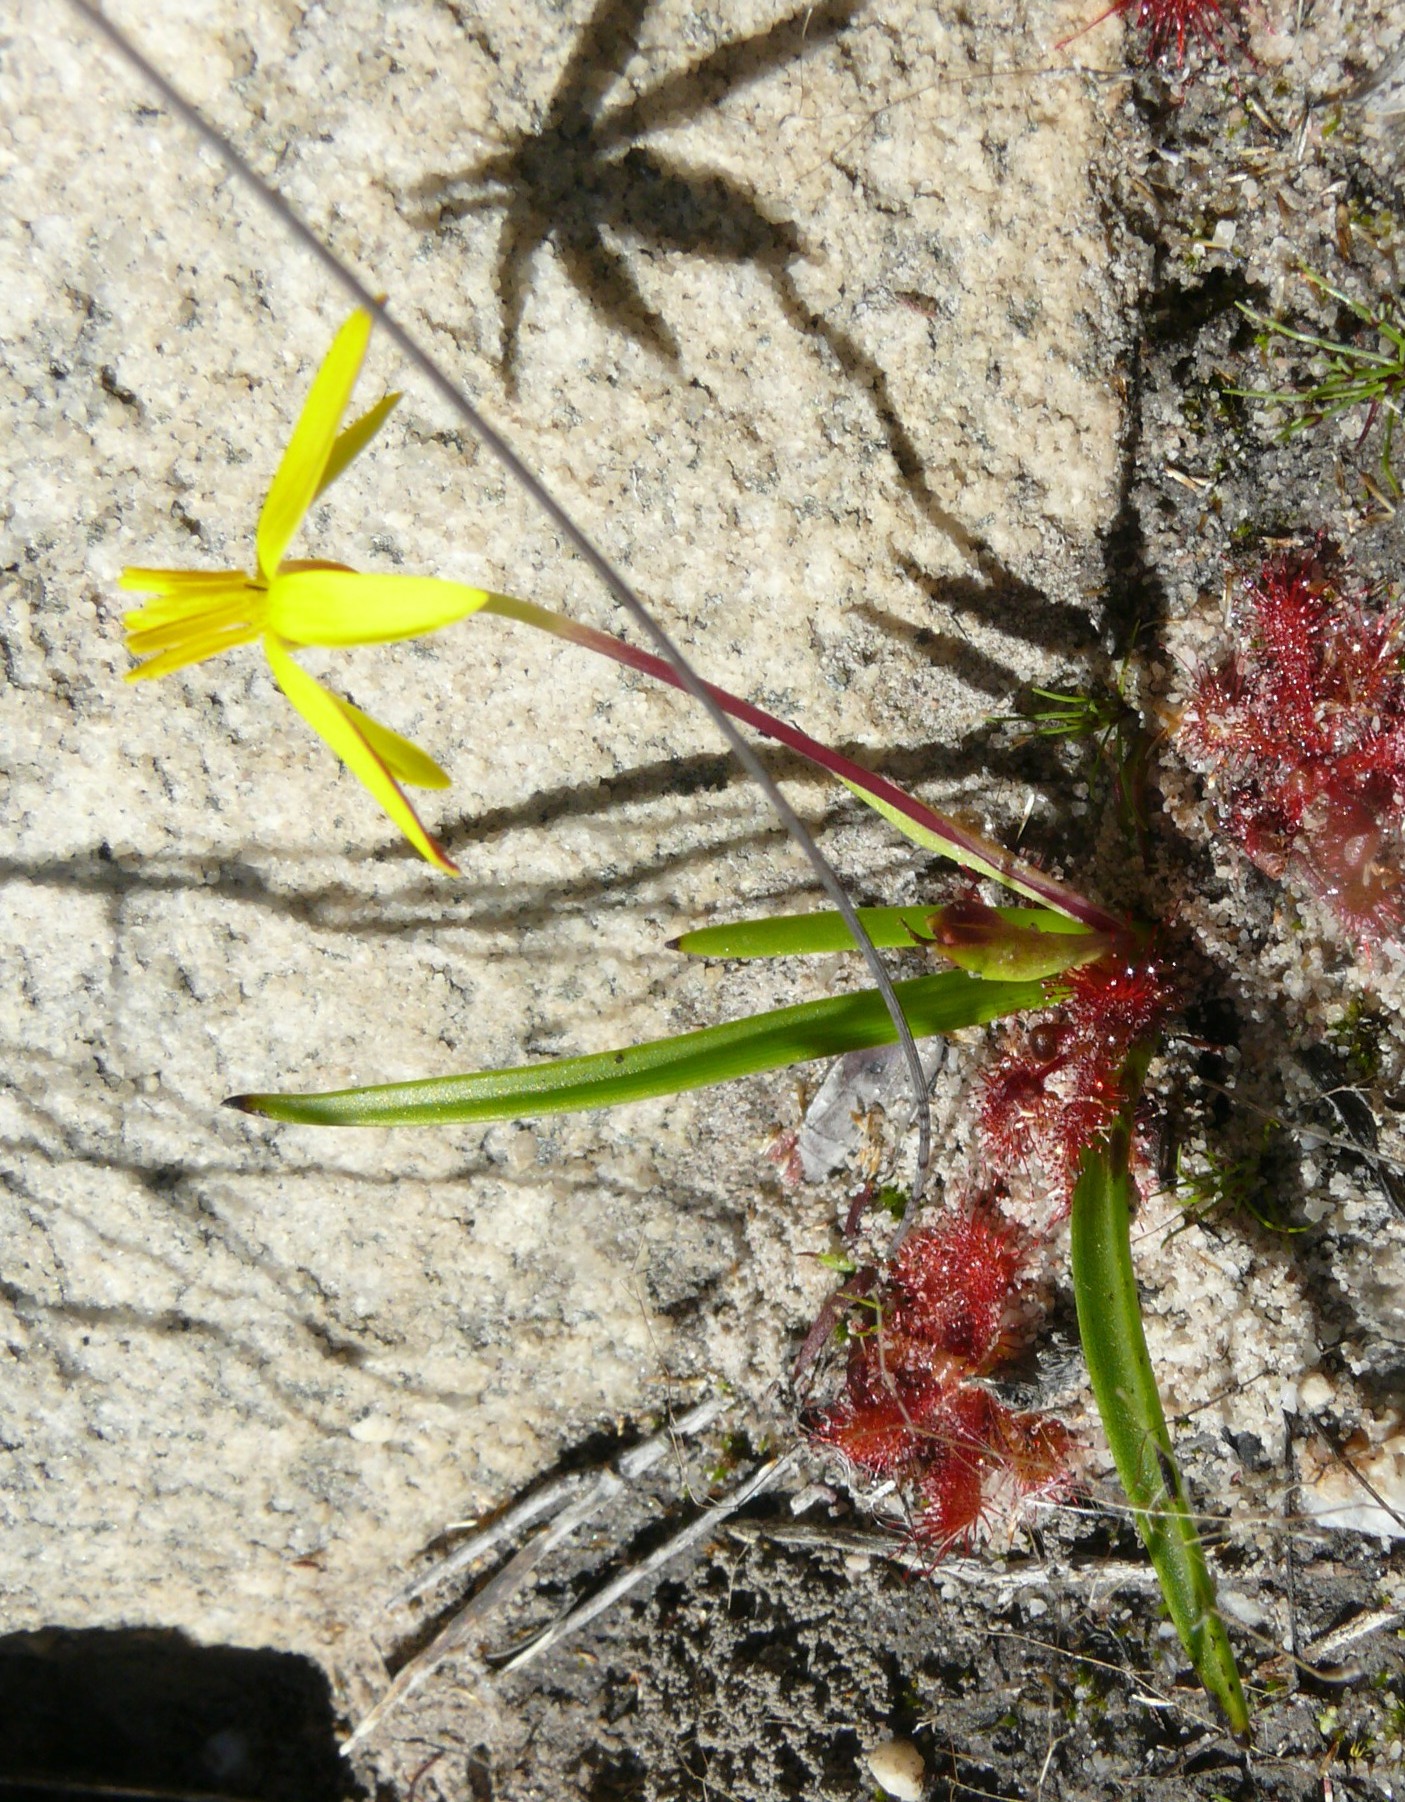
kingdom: Plantae
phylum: Tracheophyta
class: Liliopsida
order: Asparagales
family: Hypoxidaceae
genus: Pauridia
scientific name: Pauridia monticola
